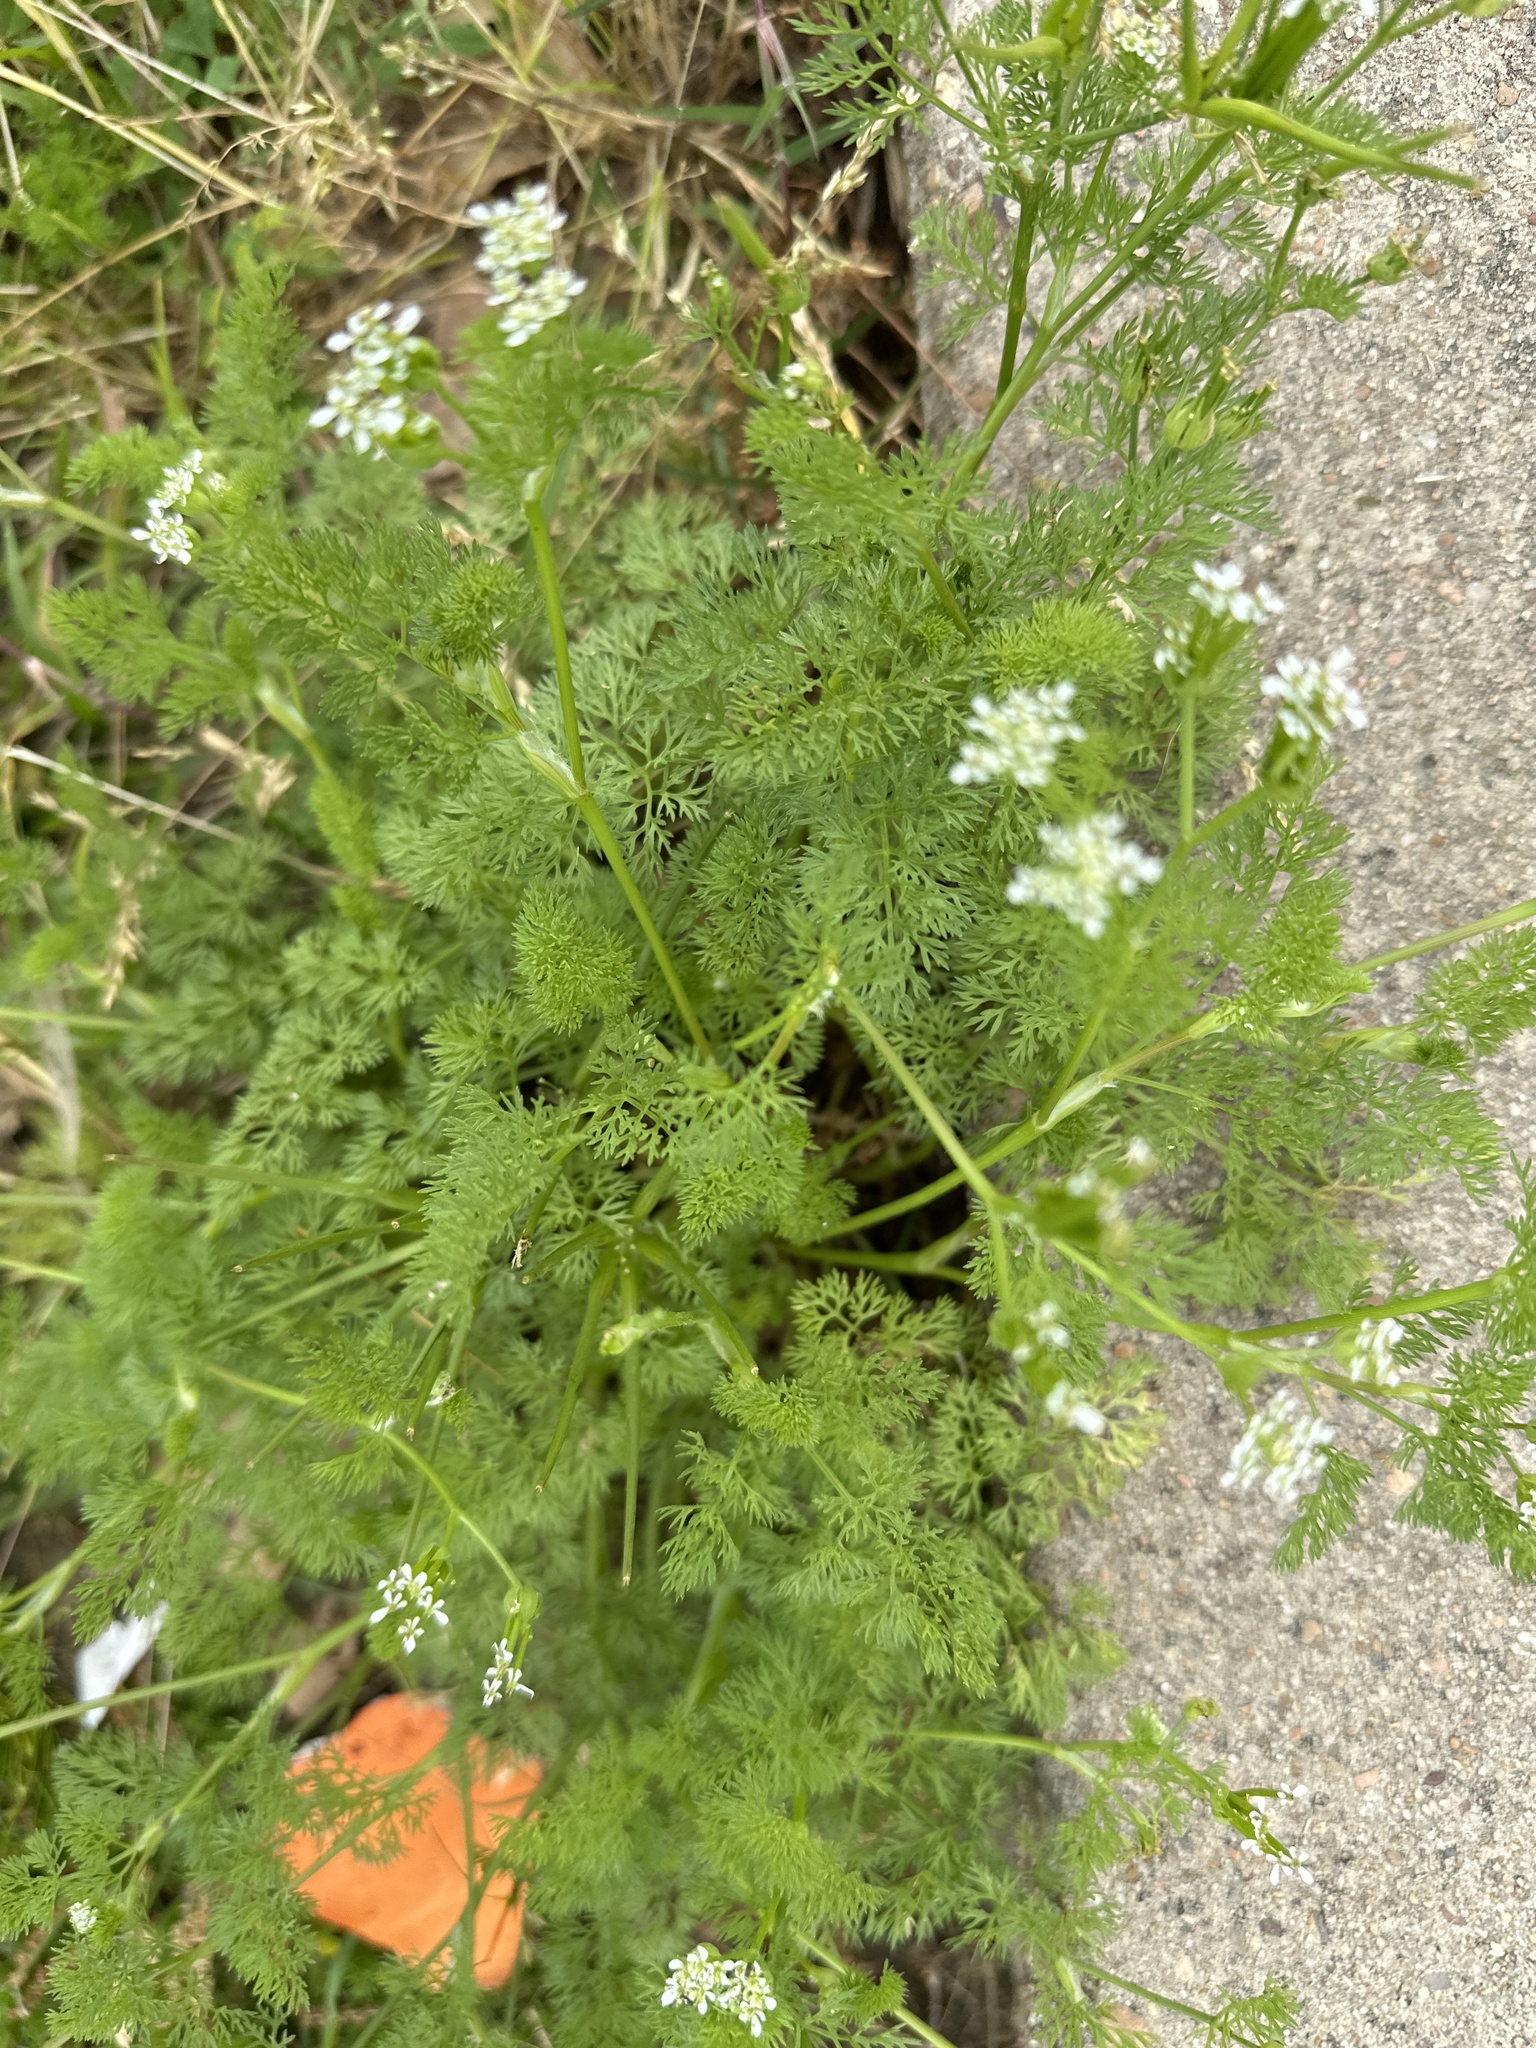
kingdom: Plantae
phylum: Tracheophyta
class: Magnoliopsida
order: Apiales
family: Apiaceae
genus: Scandix
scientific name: Scandix pecten-veneris
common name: Shepherd's-needle
